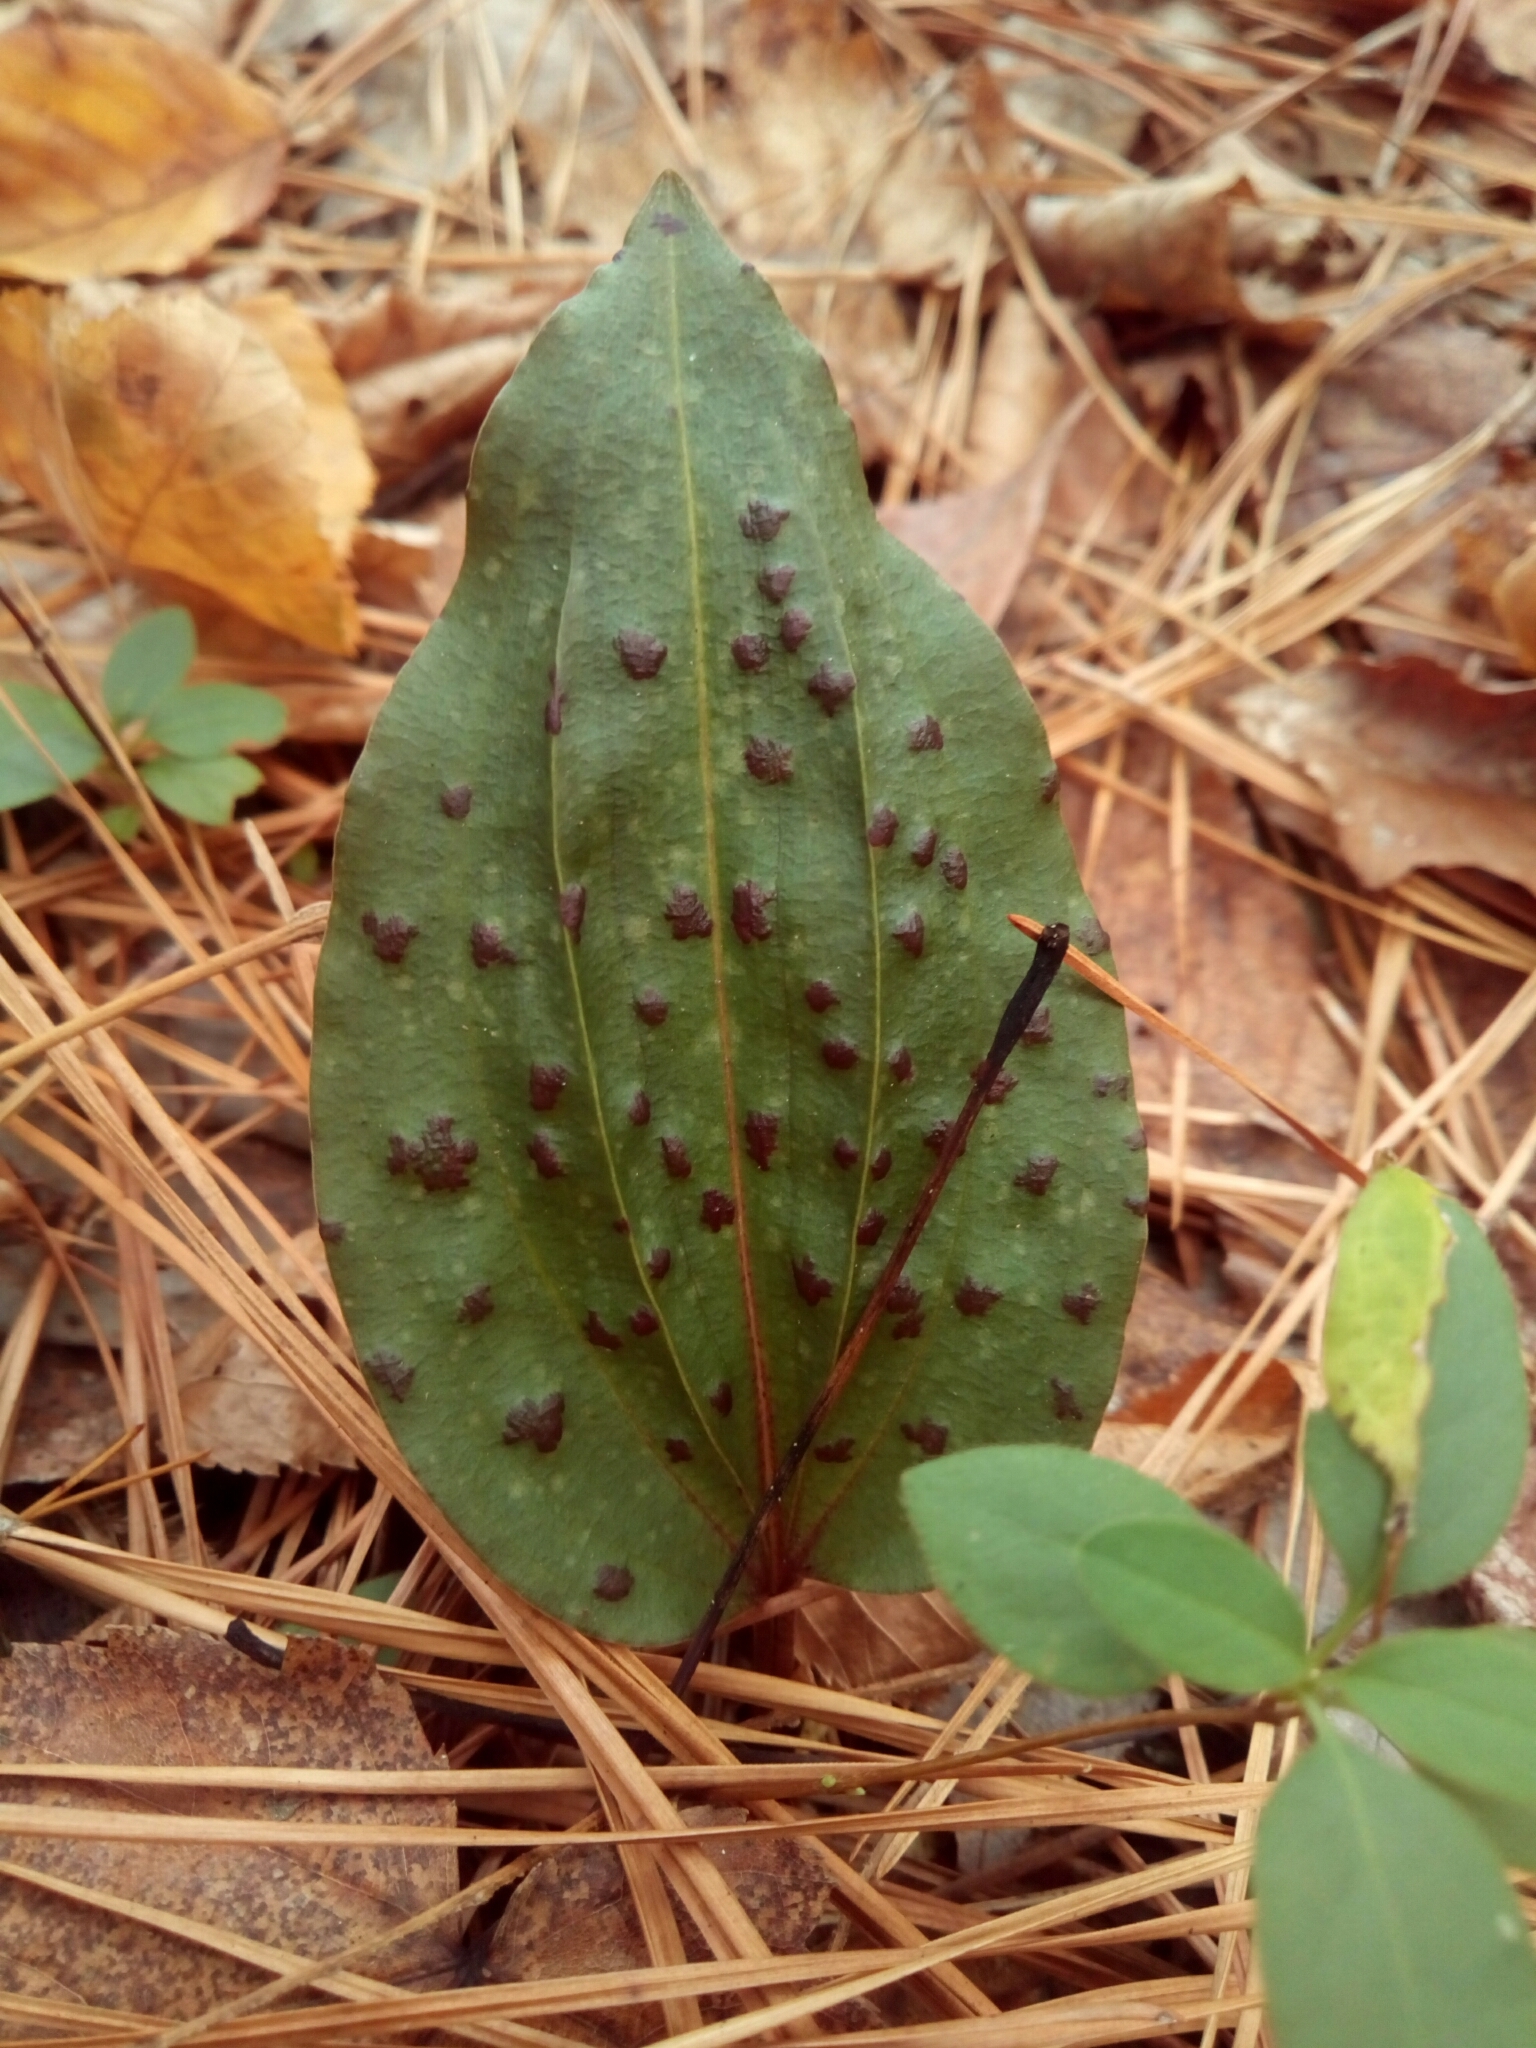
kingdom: Plantae
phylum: Tracheophyta
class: Liliopsida
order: Asparagales
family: Orchidaceae
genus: Tipularia
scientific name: Tipularia discolor
